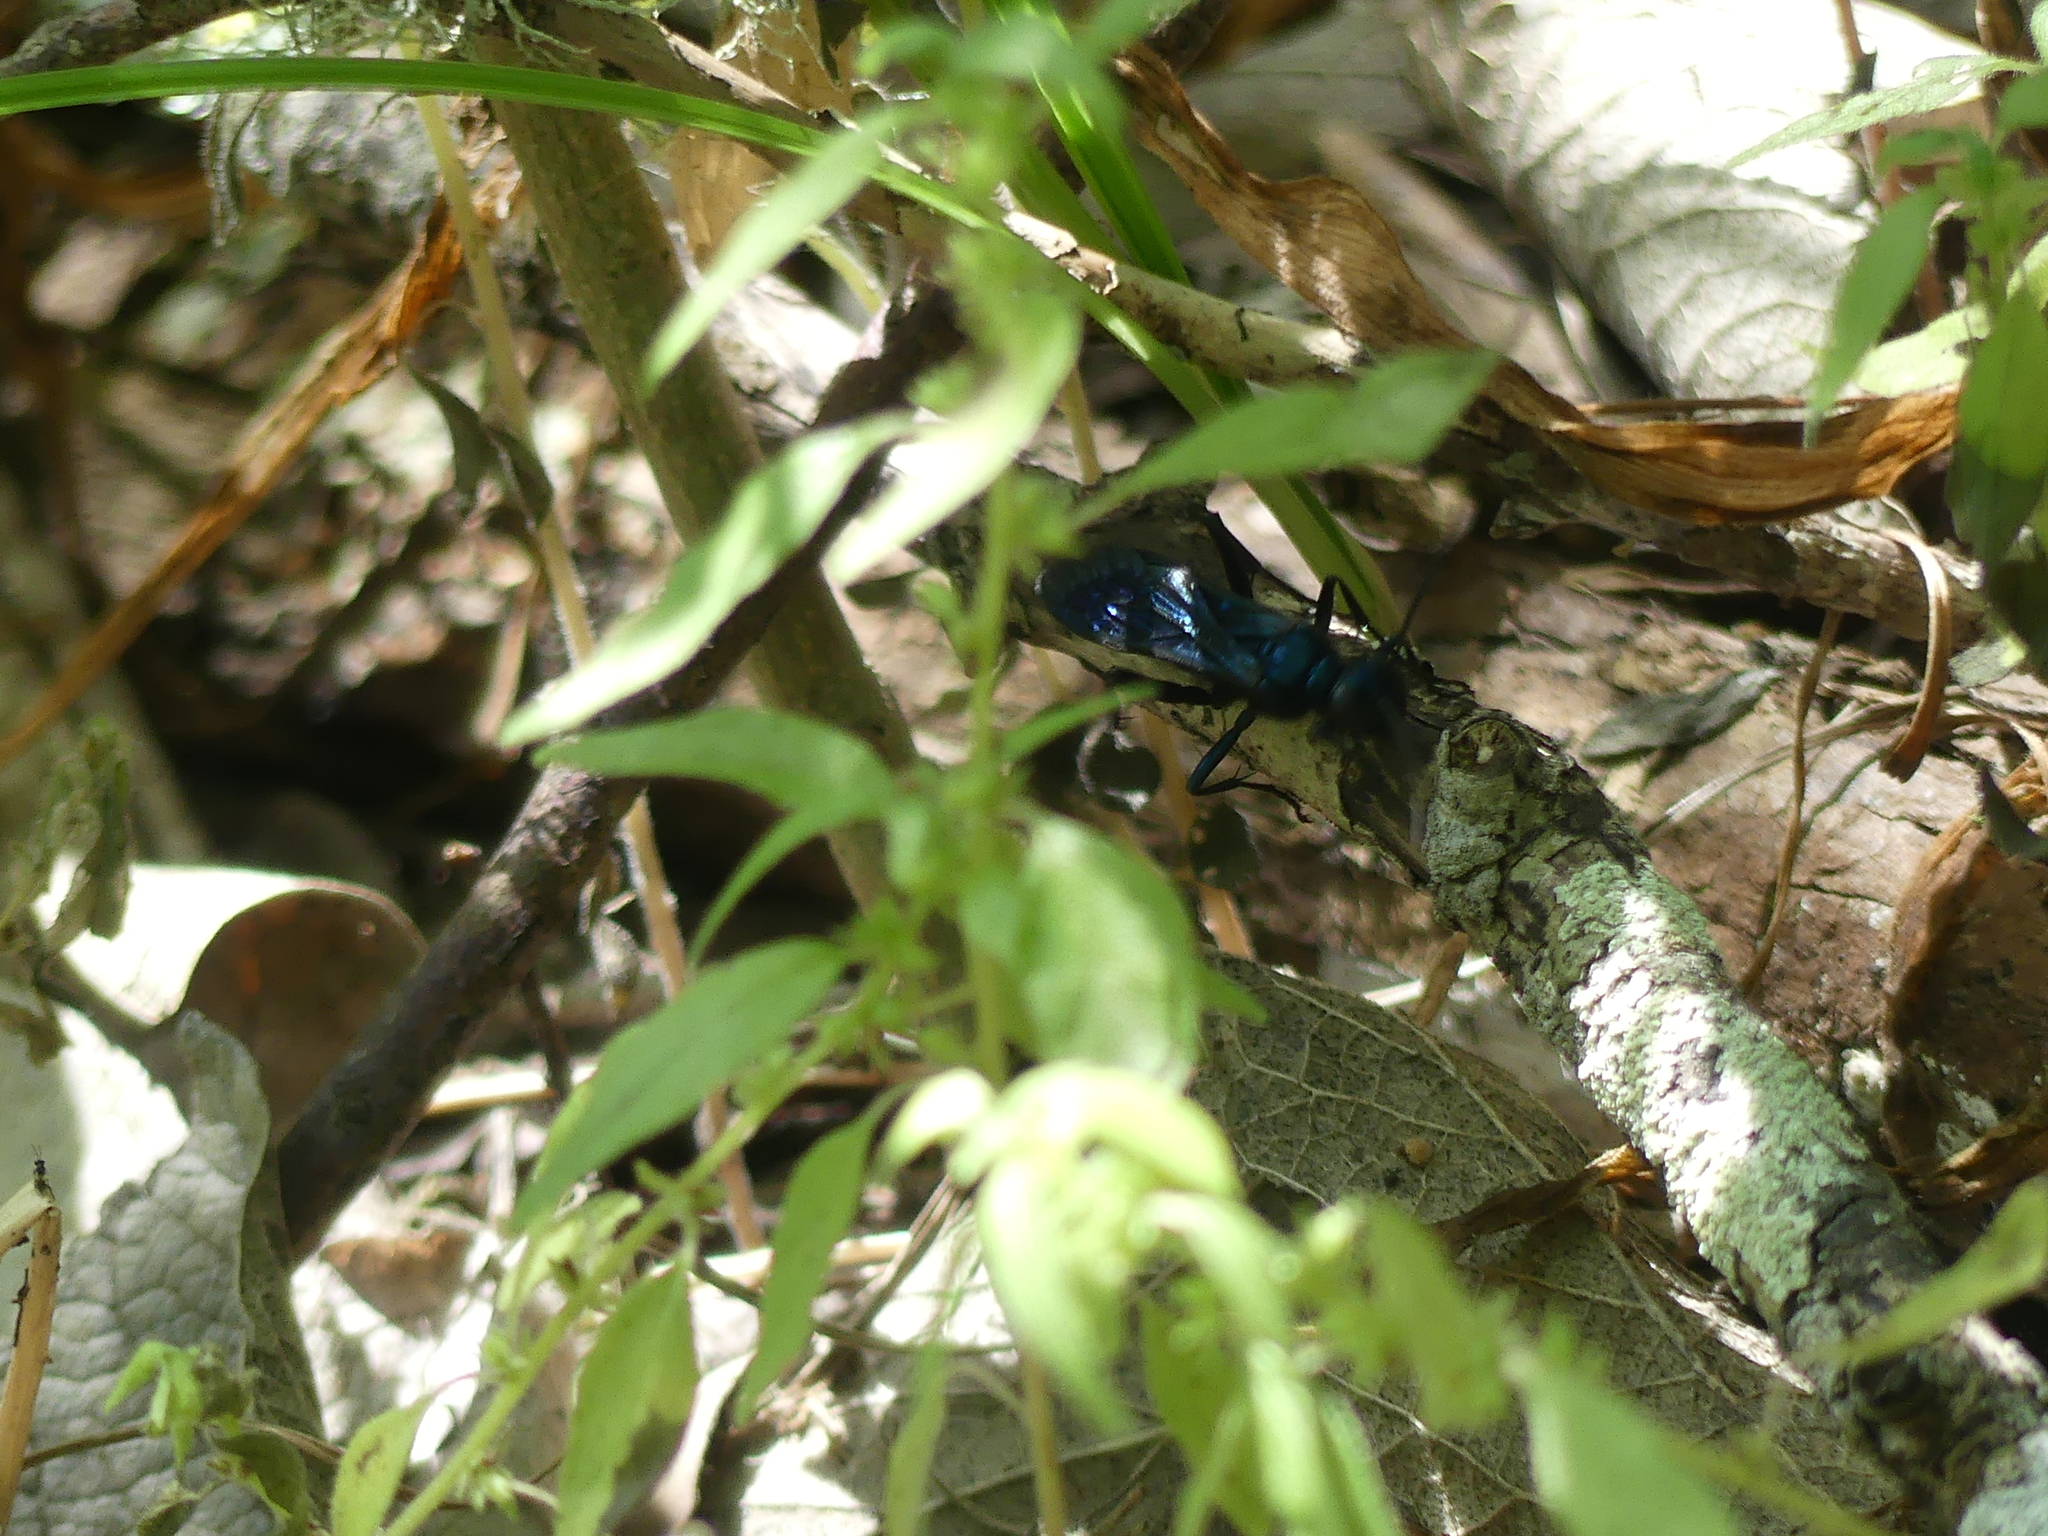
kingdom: Animalia
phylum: Arthropoda
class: Insecta
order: Hymenoptera
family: Sphecidae
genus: Chalybion
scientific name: Chalybion
